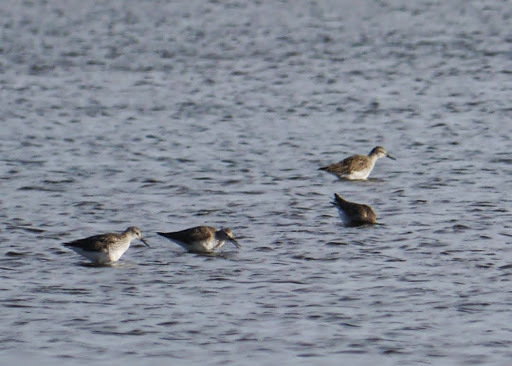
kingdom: Animalia
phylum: Chordata
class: Aves
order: Charadriiformes
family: Scolopacidae
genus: Tringa
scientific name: Tringa flavipes
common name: Lesser yellowlegs
